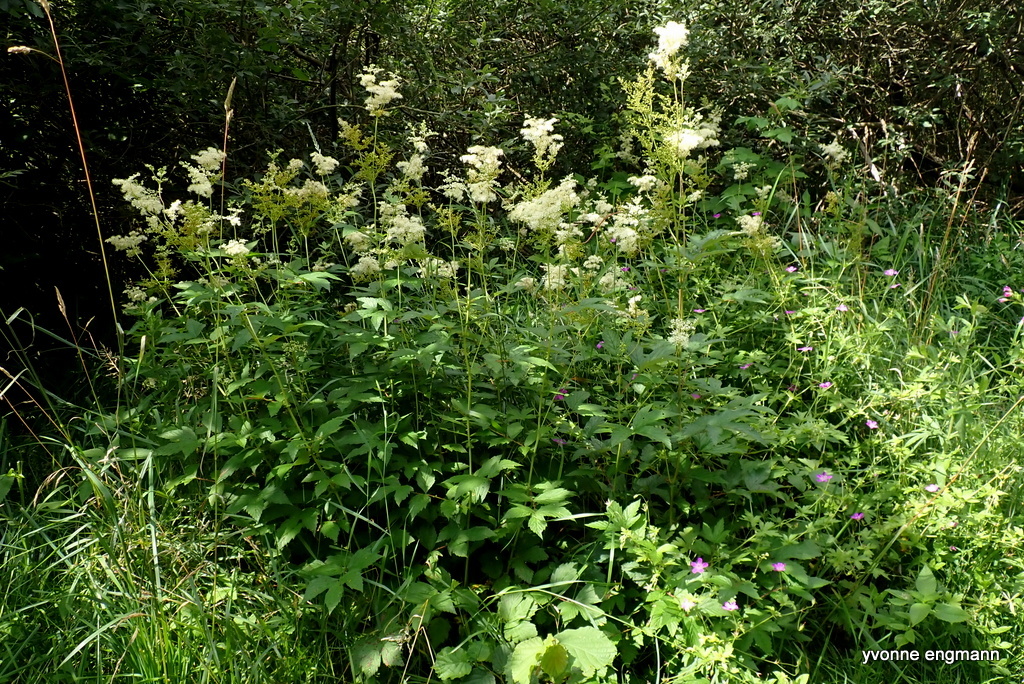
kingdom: Plantae
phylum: Tracheophyta
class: Magnoliopsida
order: Rosales
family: Rosaceae
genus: Filipendula
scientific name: Filipendula ulmaria
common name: Meadowsweet
